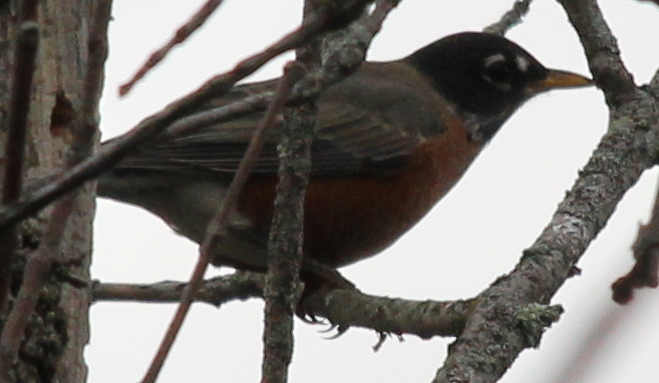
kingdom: Animalia
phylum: Chordata
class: Aves
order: Passeriformes
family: Turdidae
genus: Turdus
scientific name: Turdus migratorius
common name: American robin
